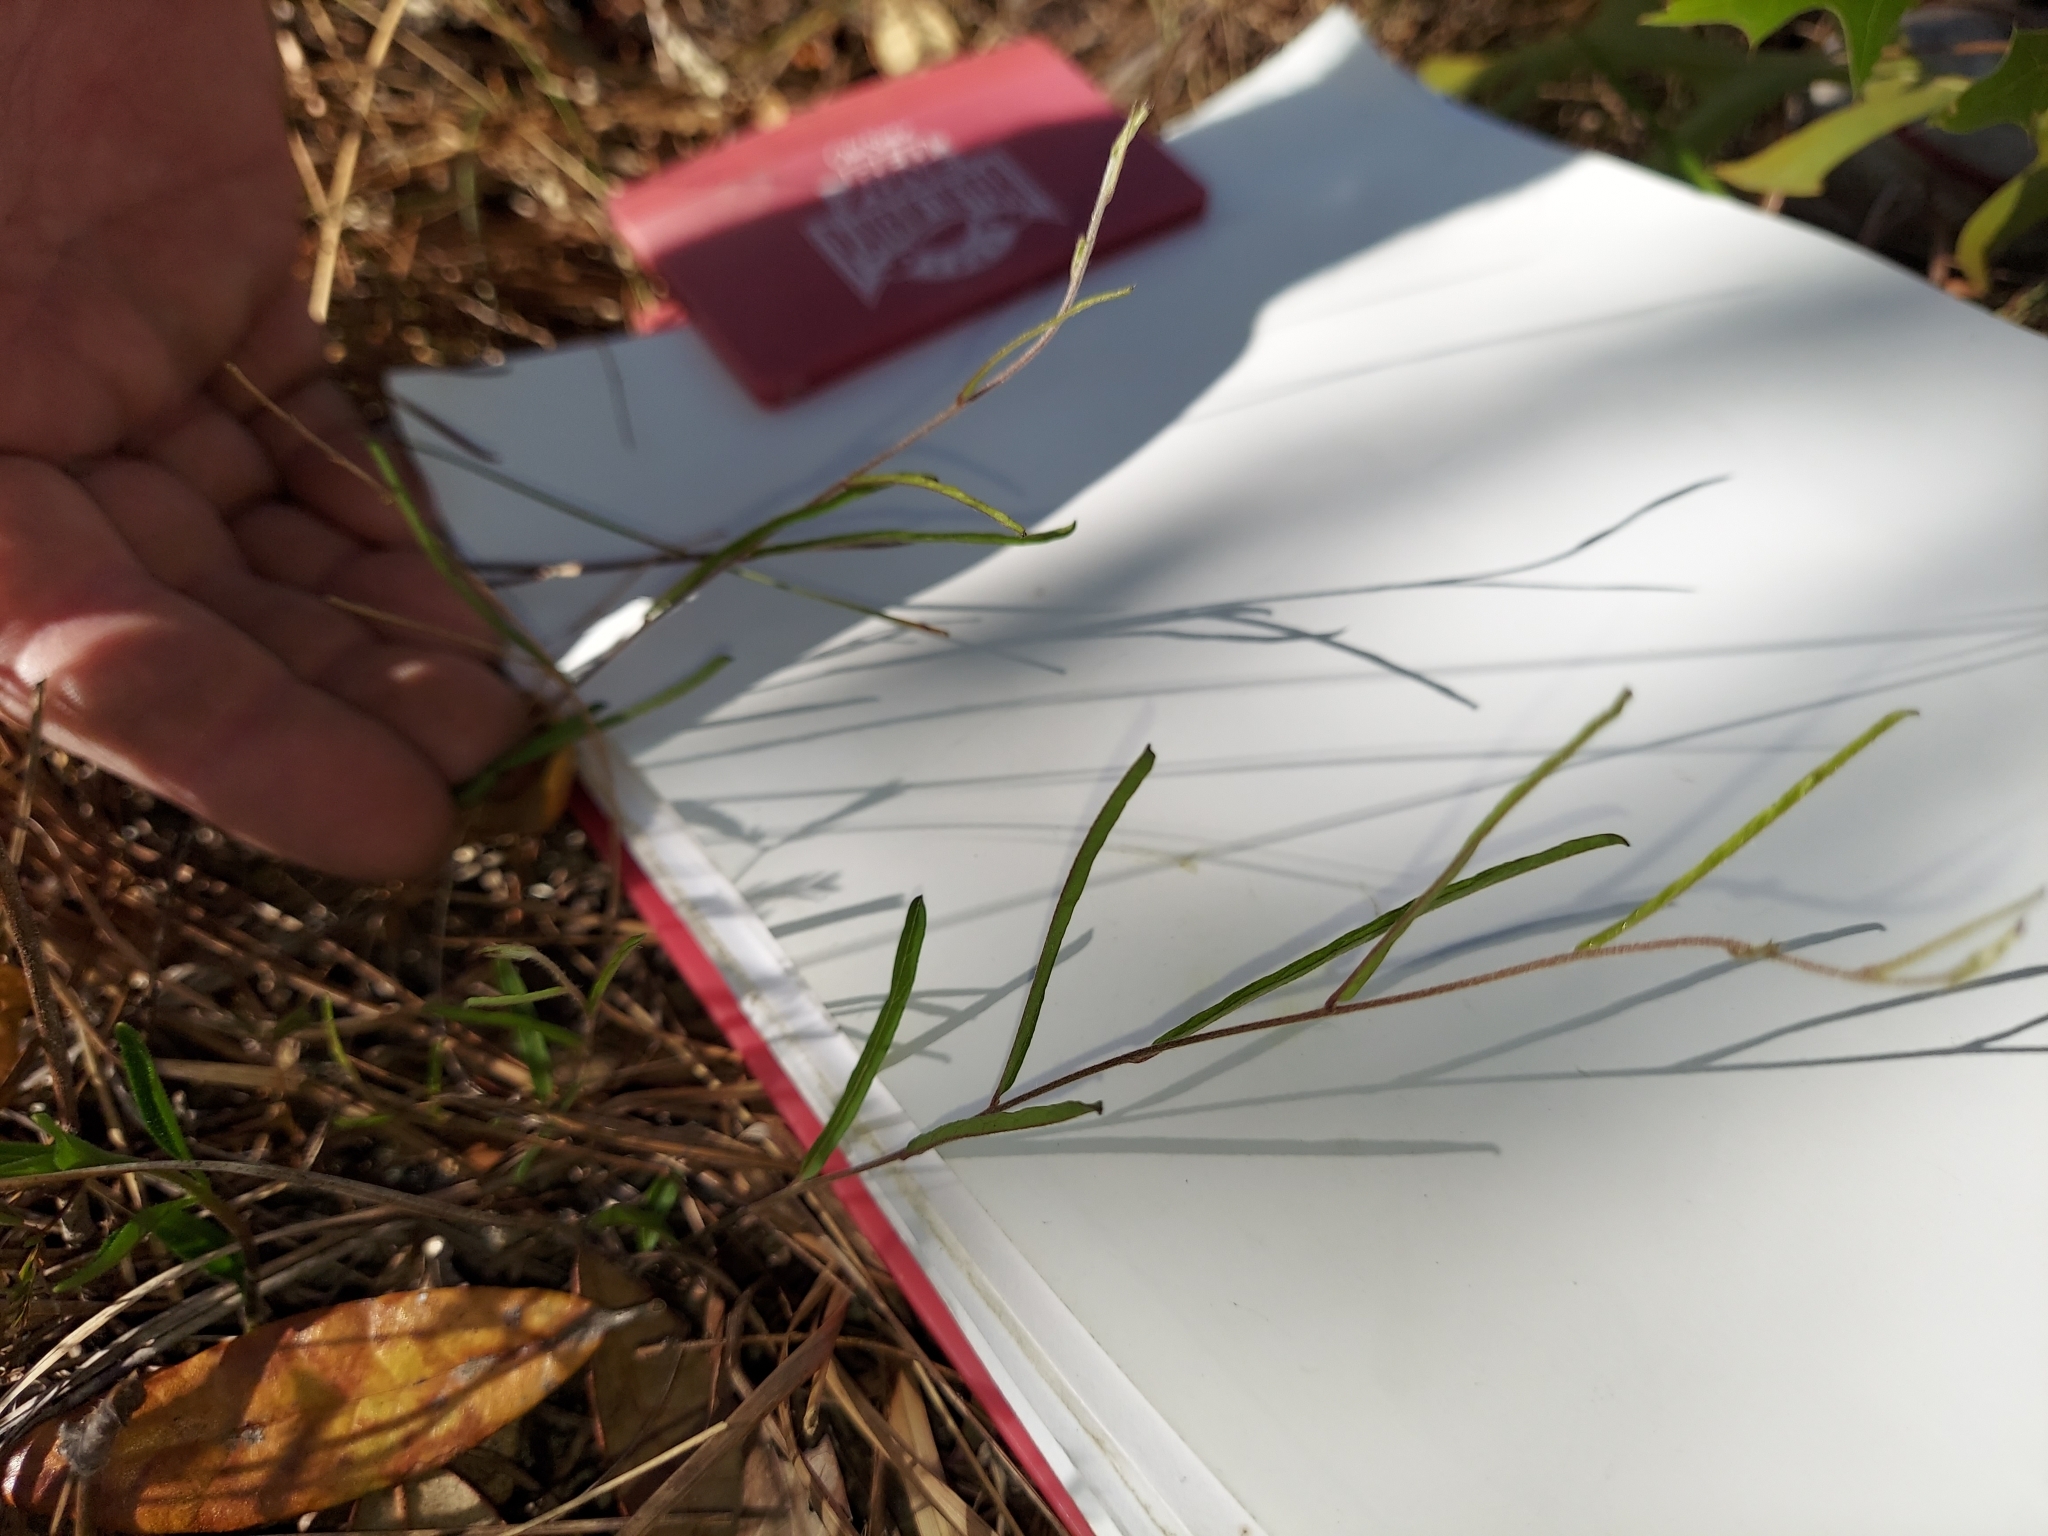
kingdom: Plantae
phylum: Tracheophyta
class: Magnoliopsida
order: Solanales
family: Convolvulaceae
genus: Stylisma
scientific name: Stylisma patens
